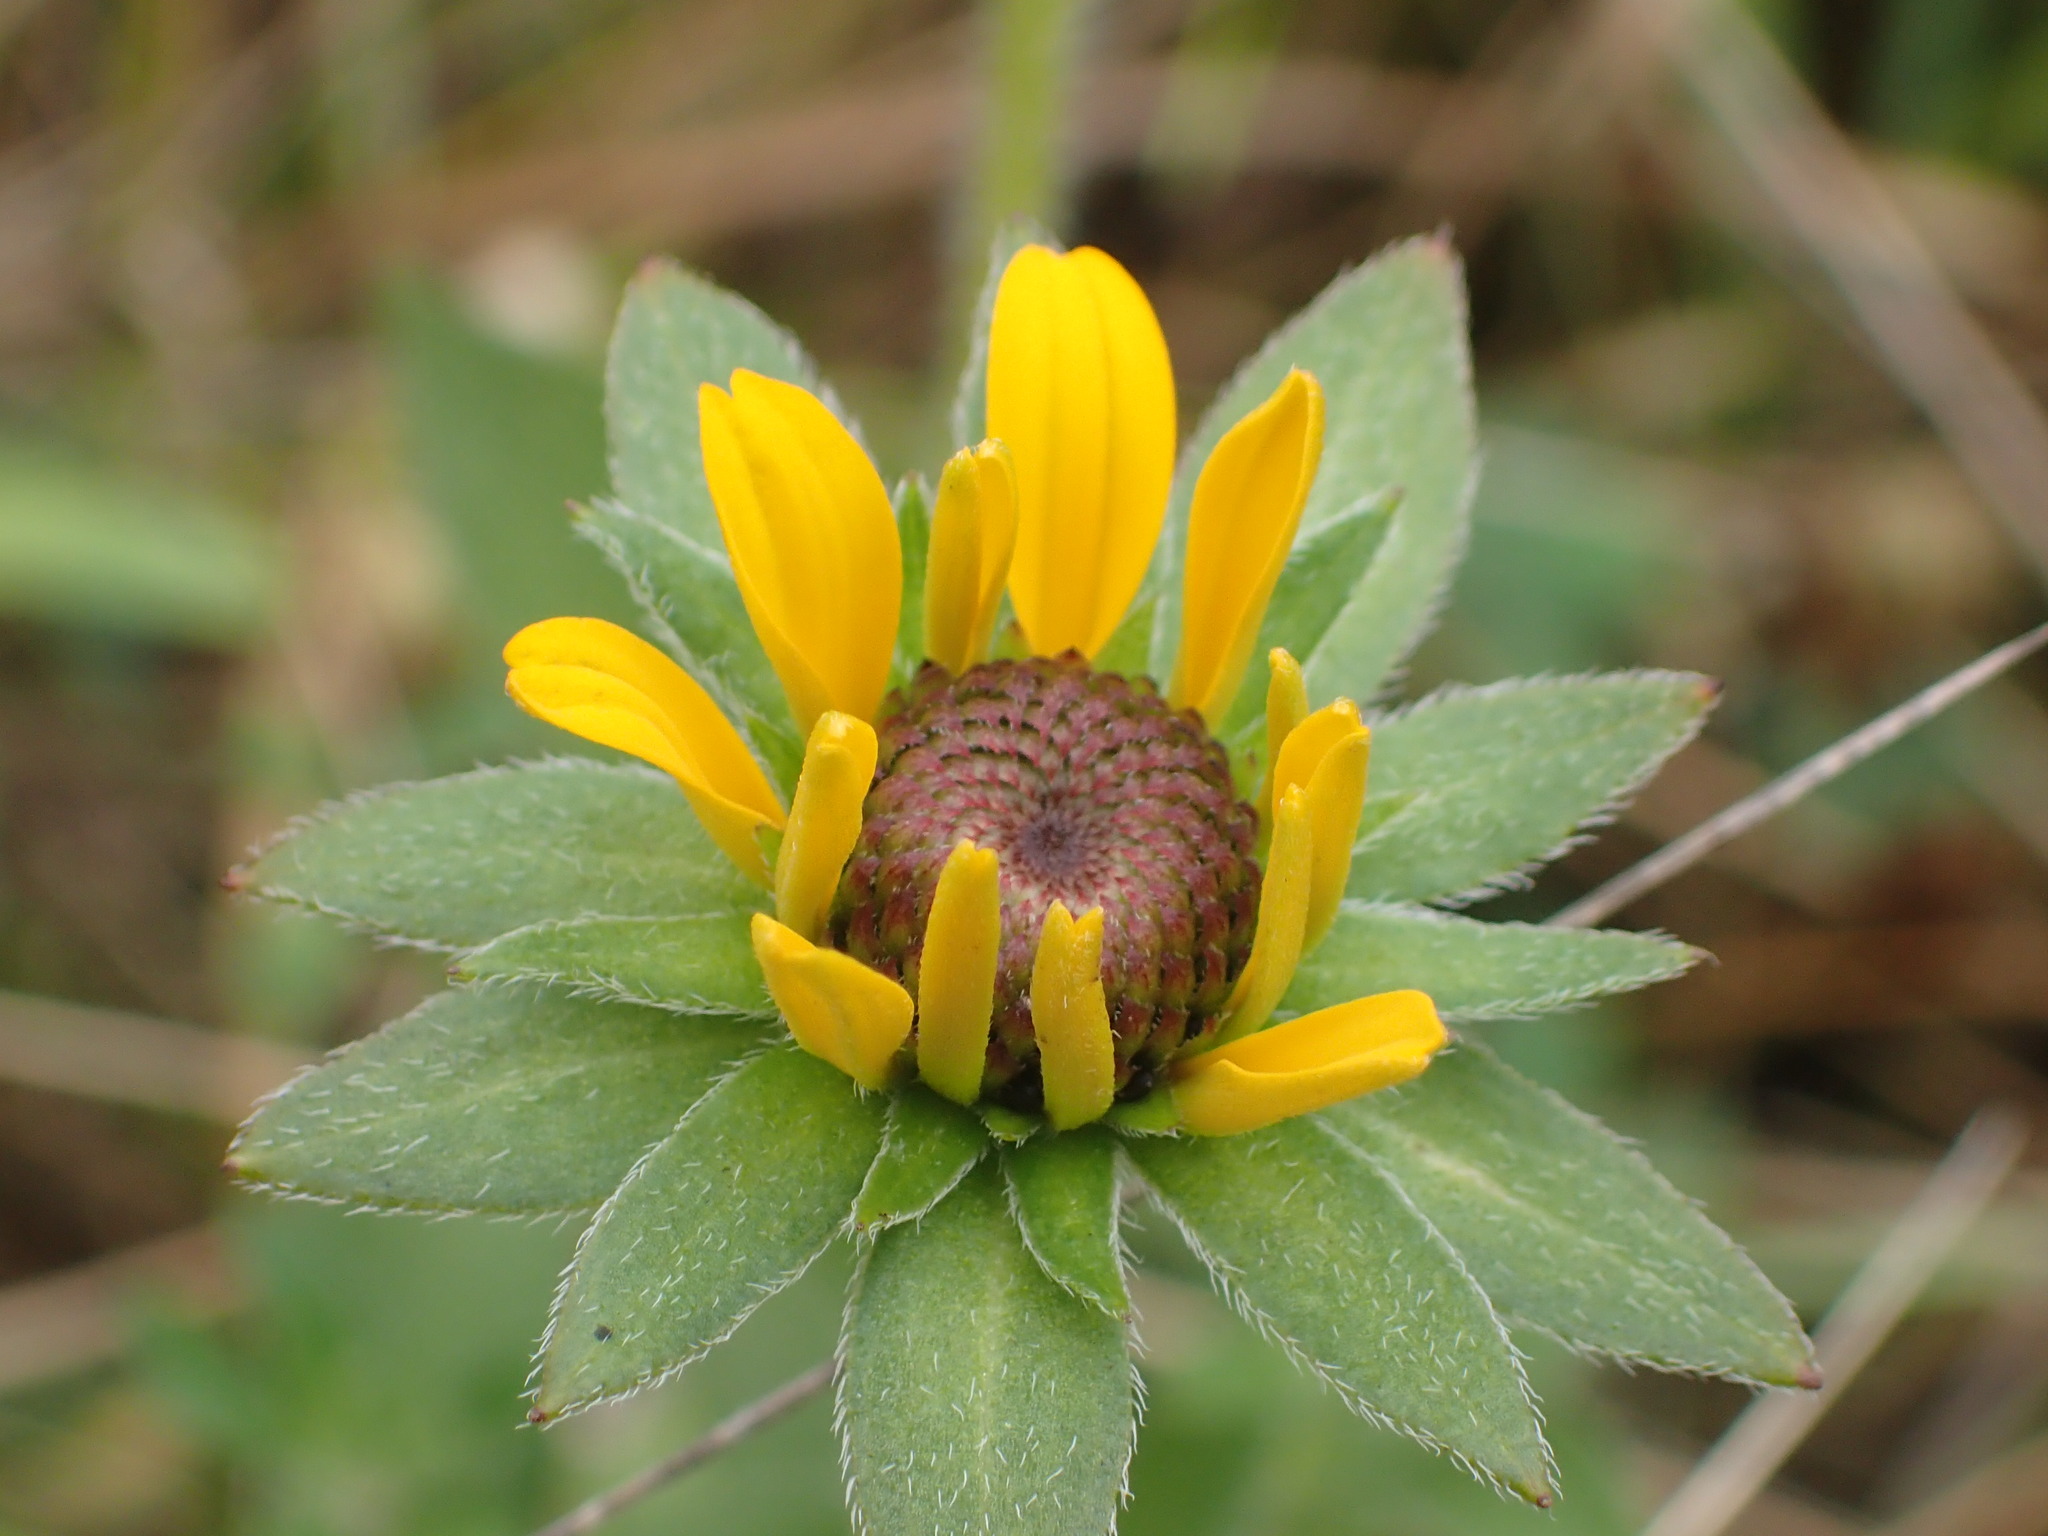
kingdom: Plantae
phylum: Tracheophyta
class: Magnoliopsida
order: Asterales
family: Asteraceae
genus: Rudbeckia
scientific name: Rudbeckia hirta
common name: Black-eyed-susan
